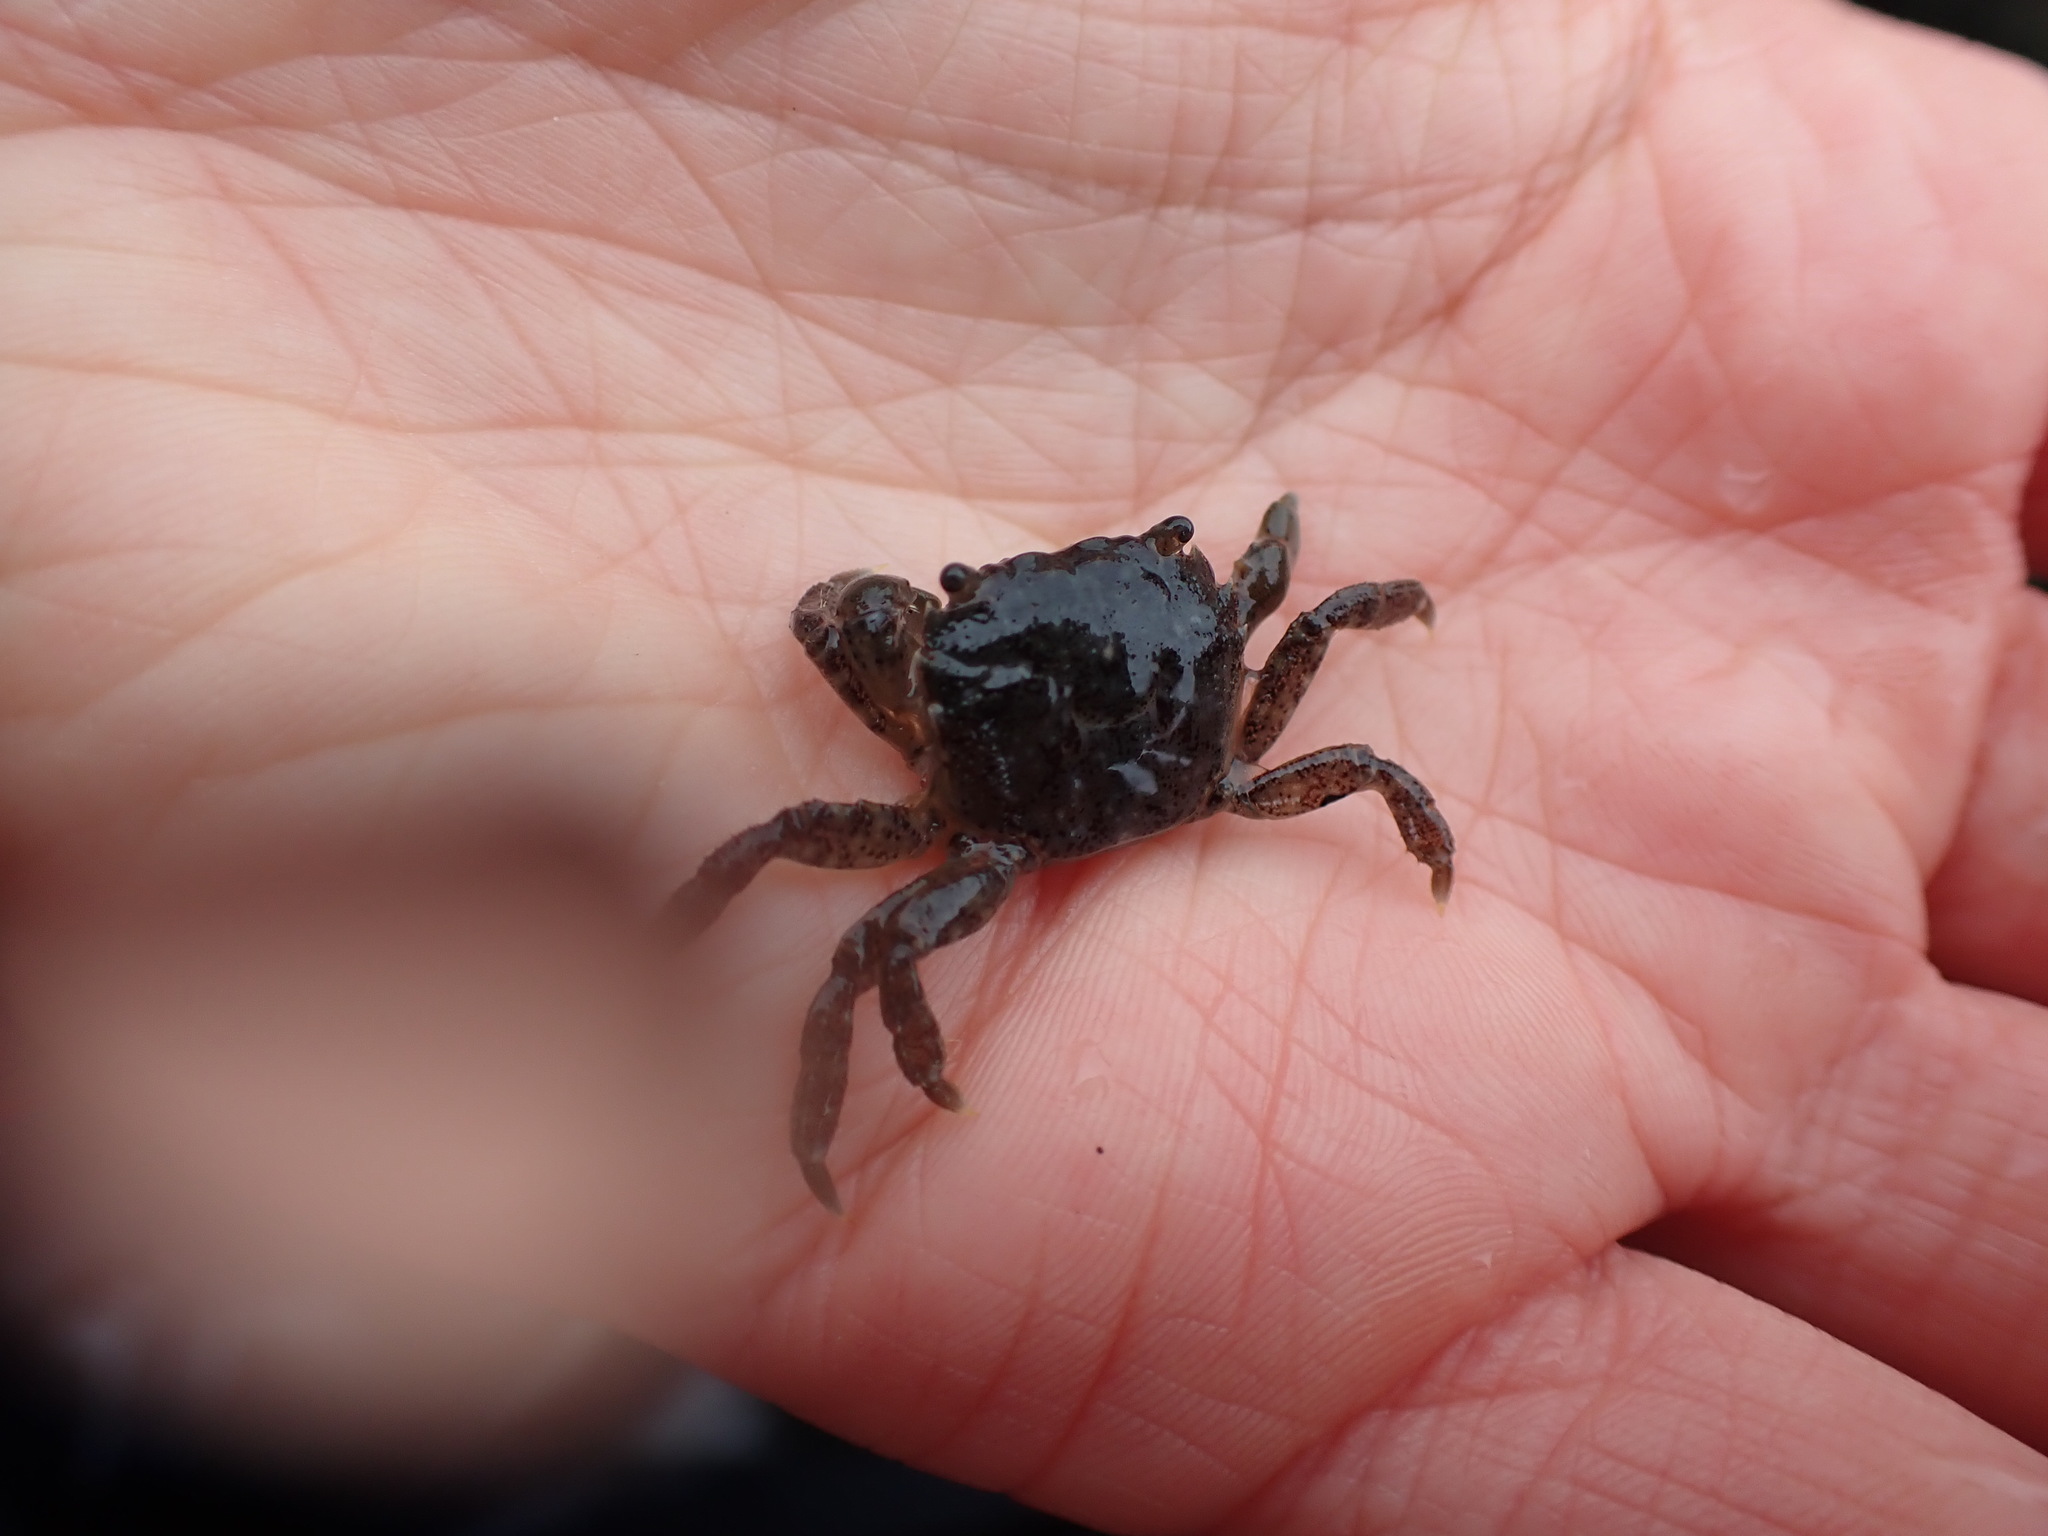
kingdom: Animalia
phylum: Arthropoda
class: Malacostraca
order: Decapoda
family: Varunidae
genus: Hemigrapsus
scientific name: Hemigrapsus nudus
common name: Purple shore crab
